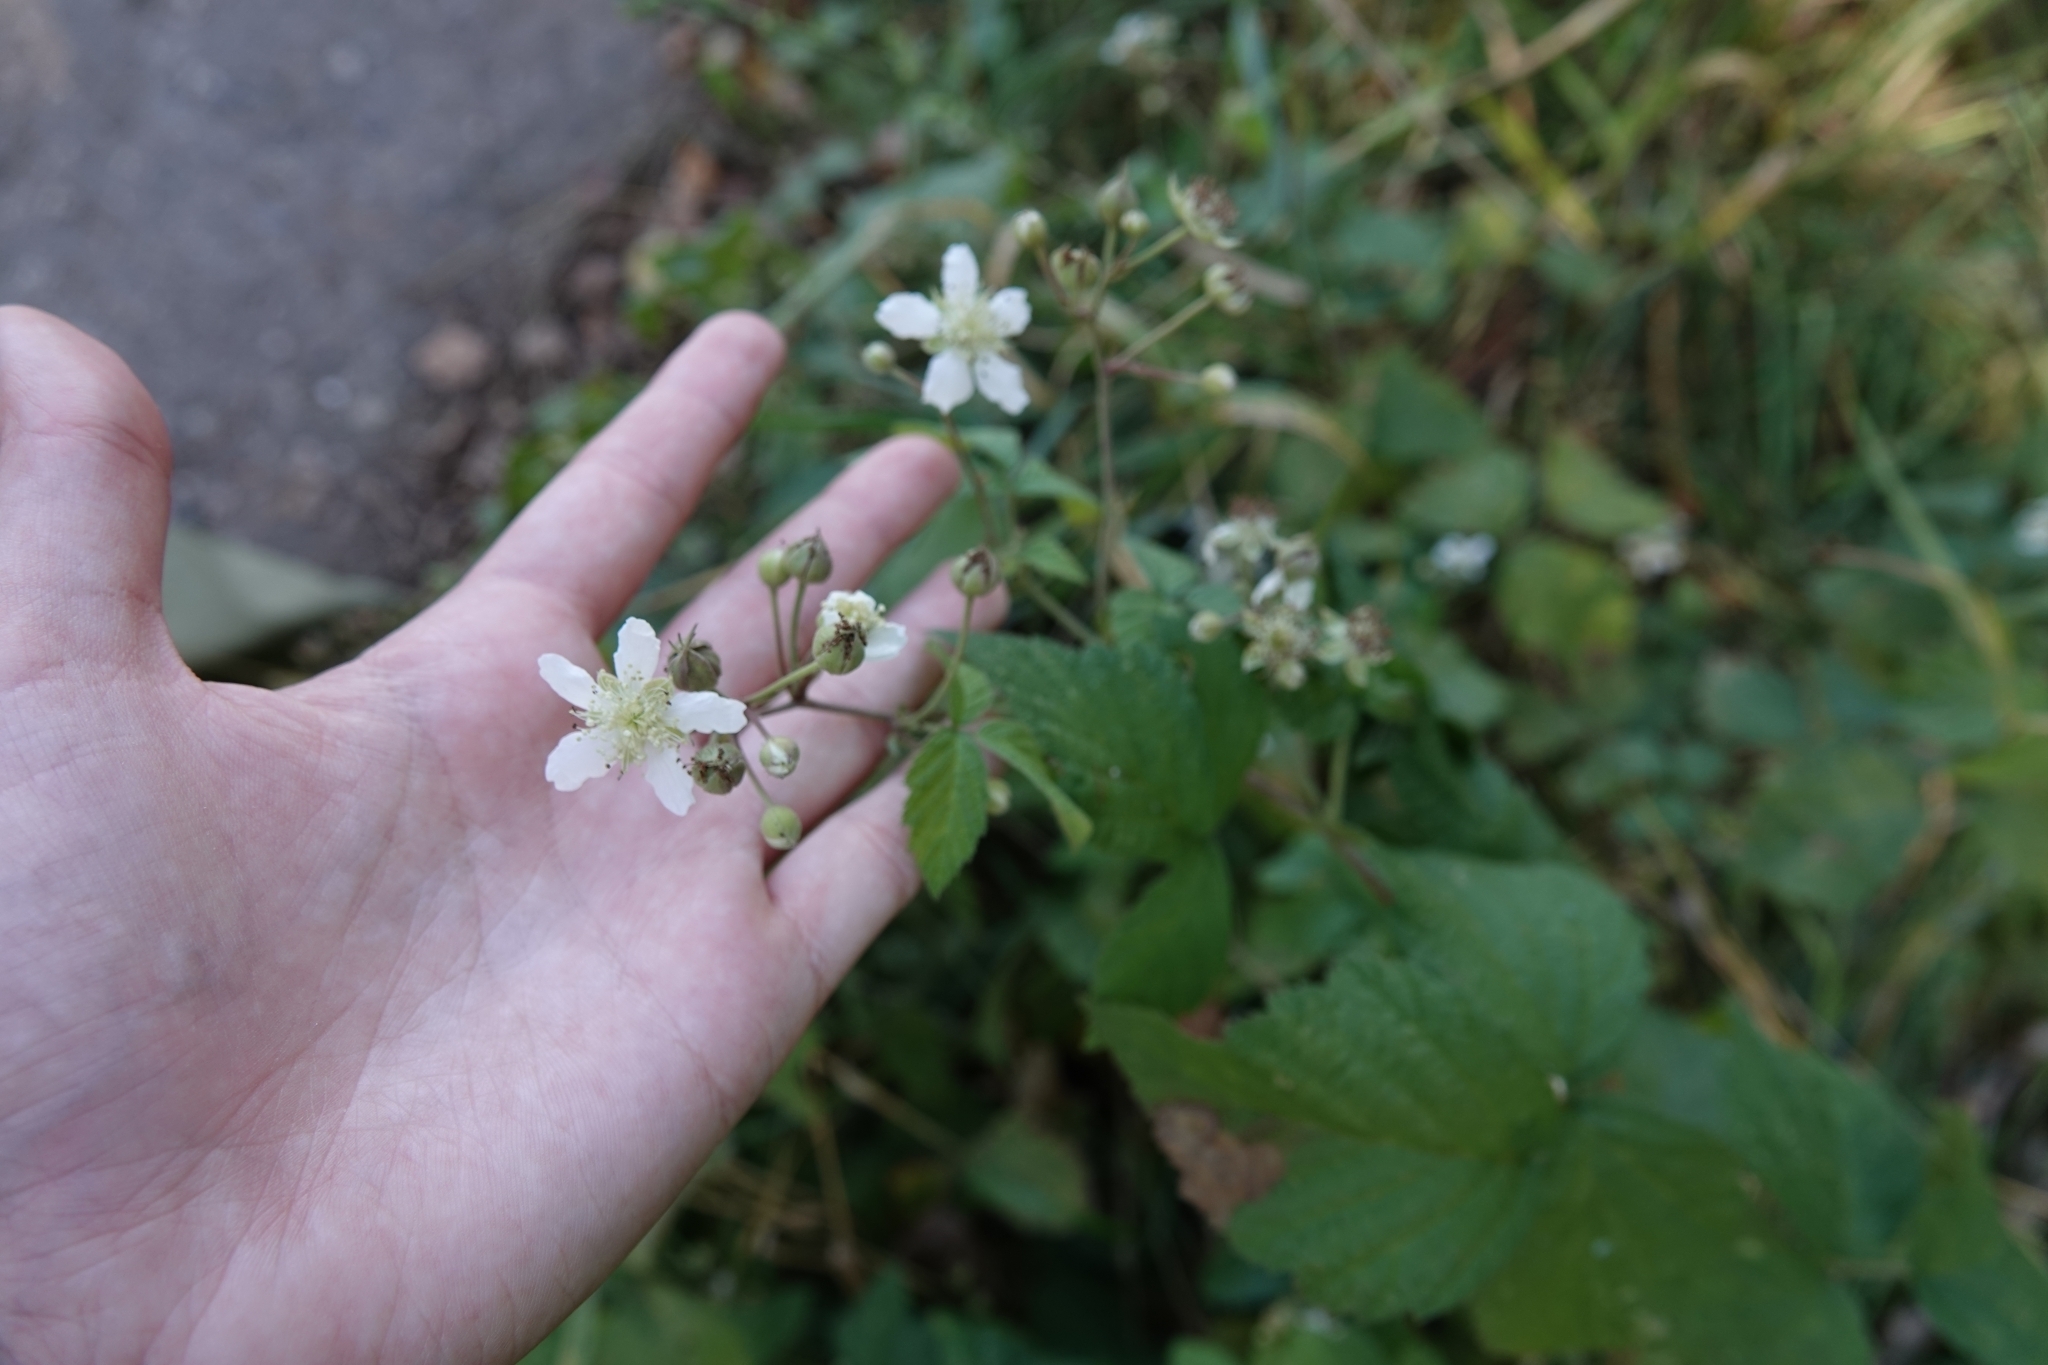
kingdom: Plantae
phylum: Tracheophyta
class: Magnoliopsida
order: Rosales
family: Rosaceae
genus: Rubus
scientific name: Rubus caesius
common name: Dewberry
